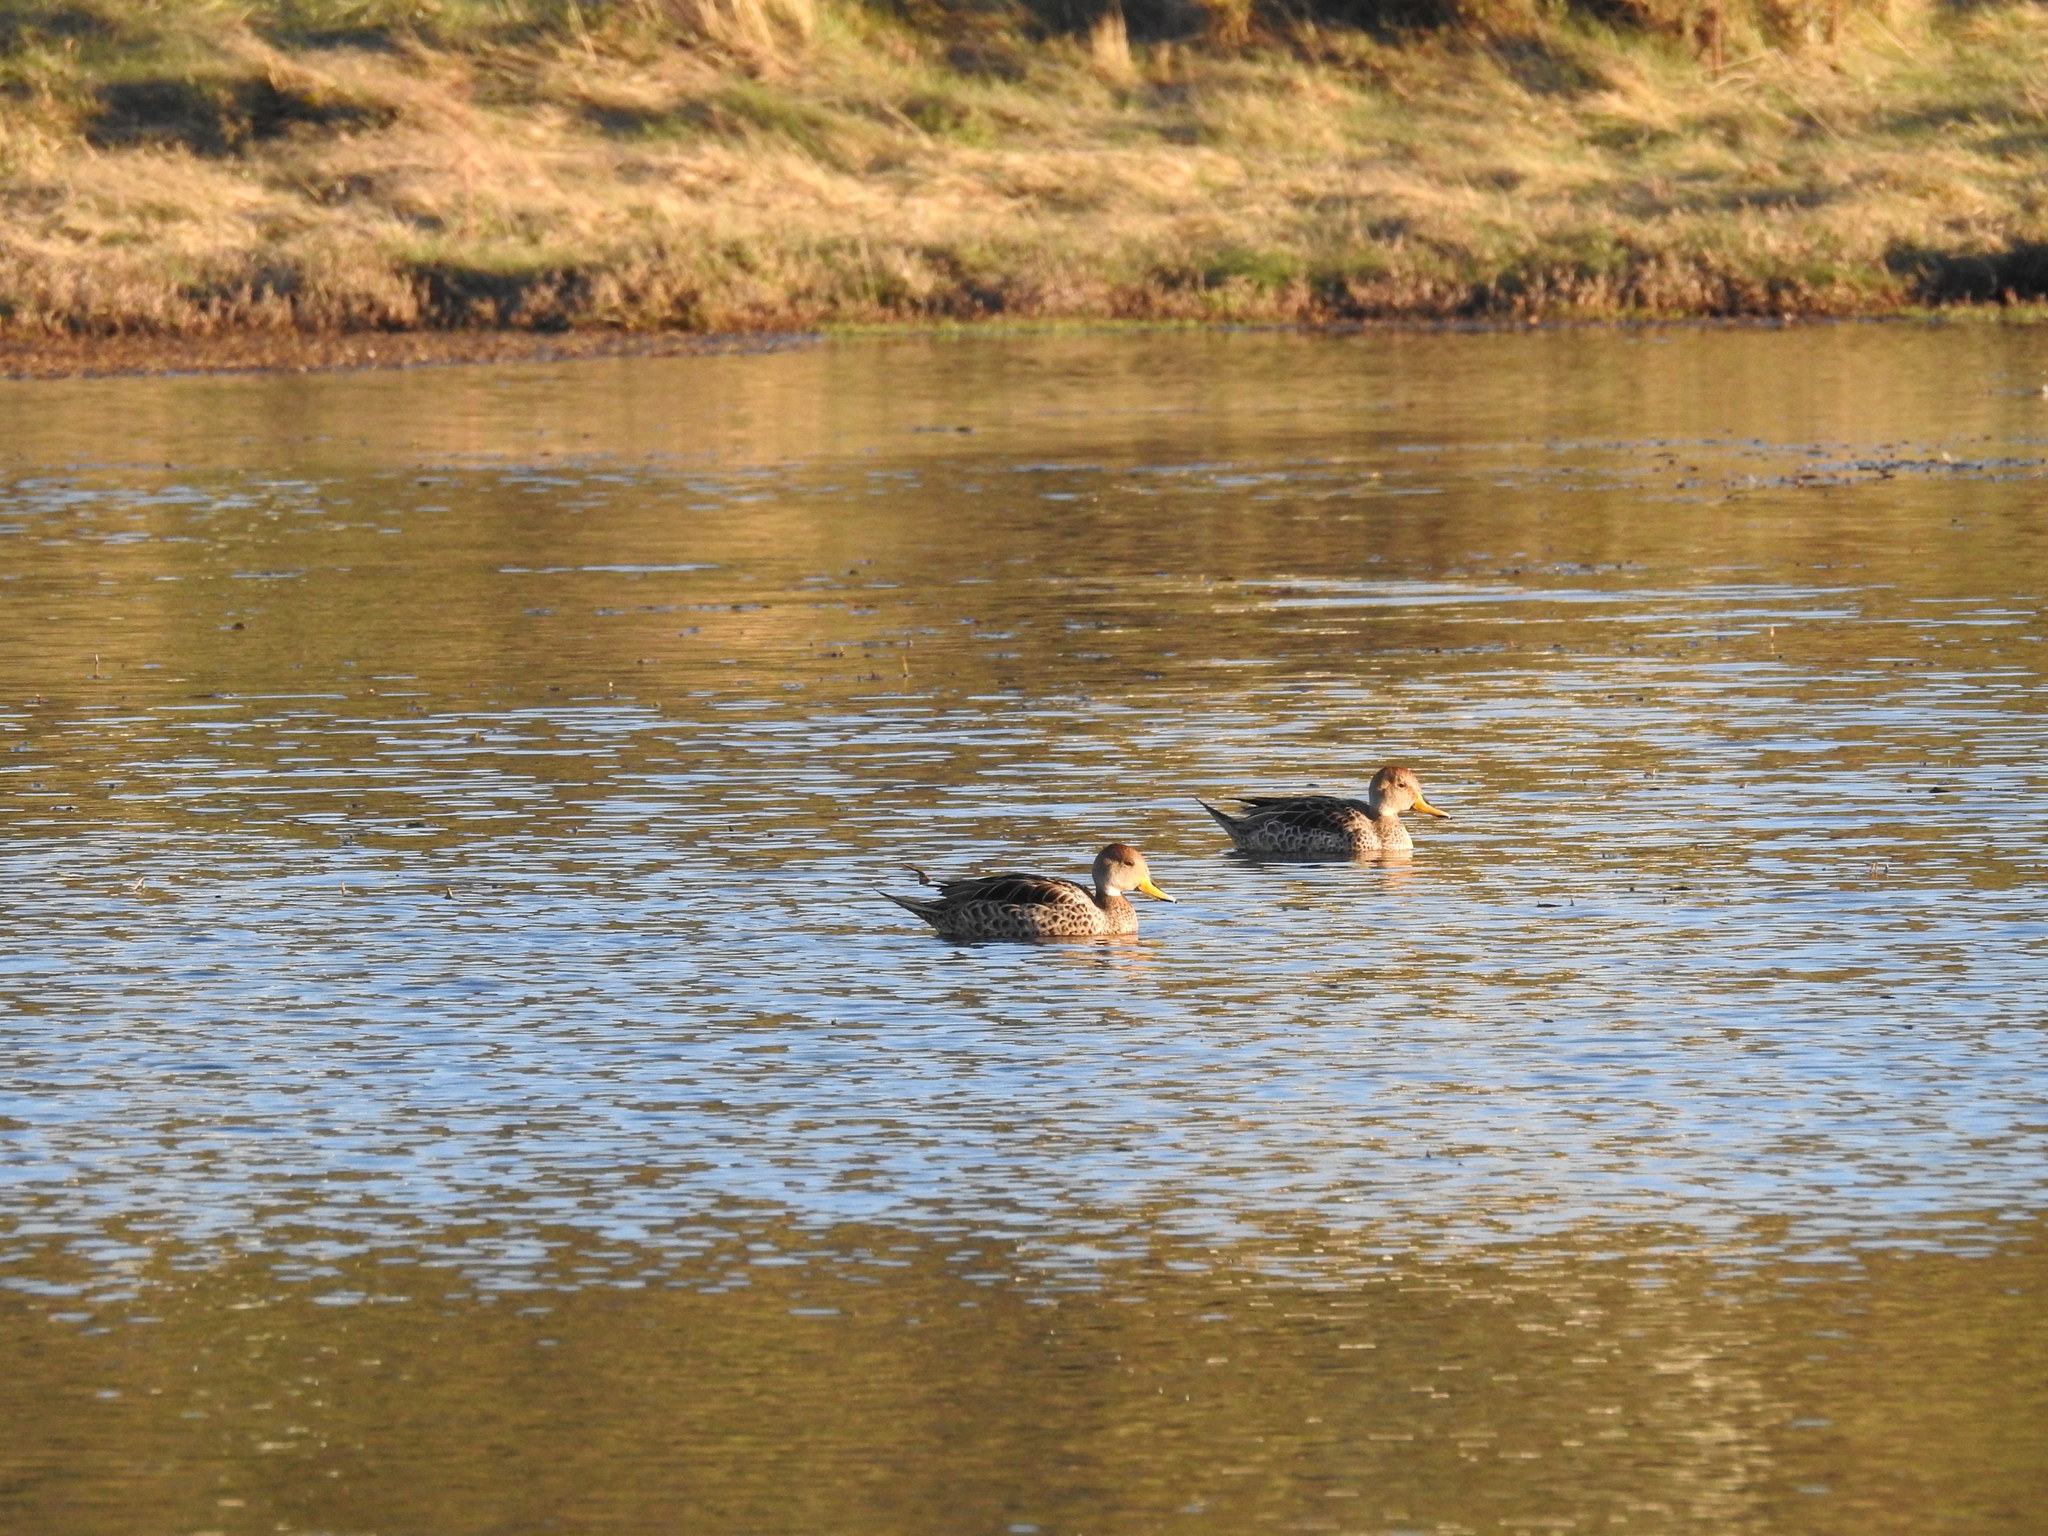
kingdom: Animalia
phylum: Chordata
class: Aves
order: Anseriformes
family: Anatidae
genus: Anas
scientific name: Anas georgica
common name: Yellow-billed pintail
